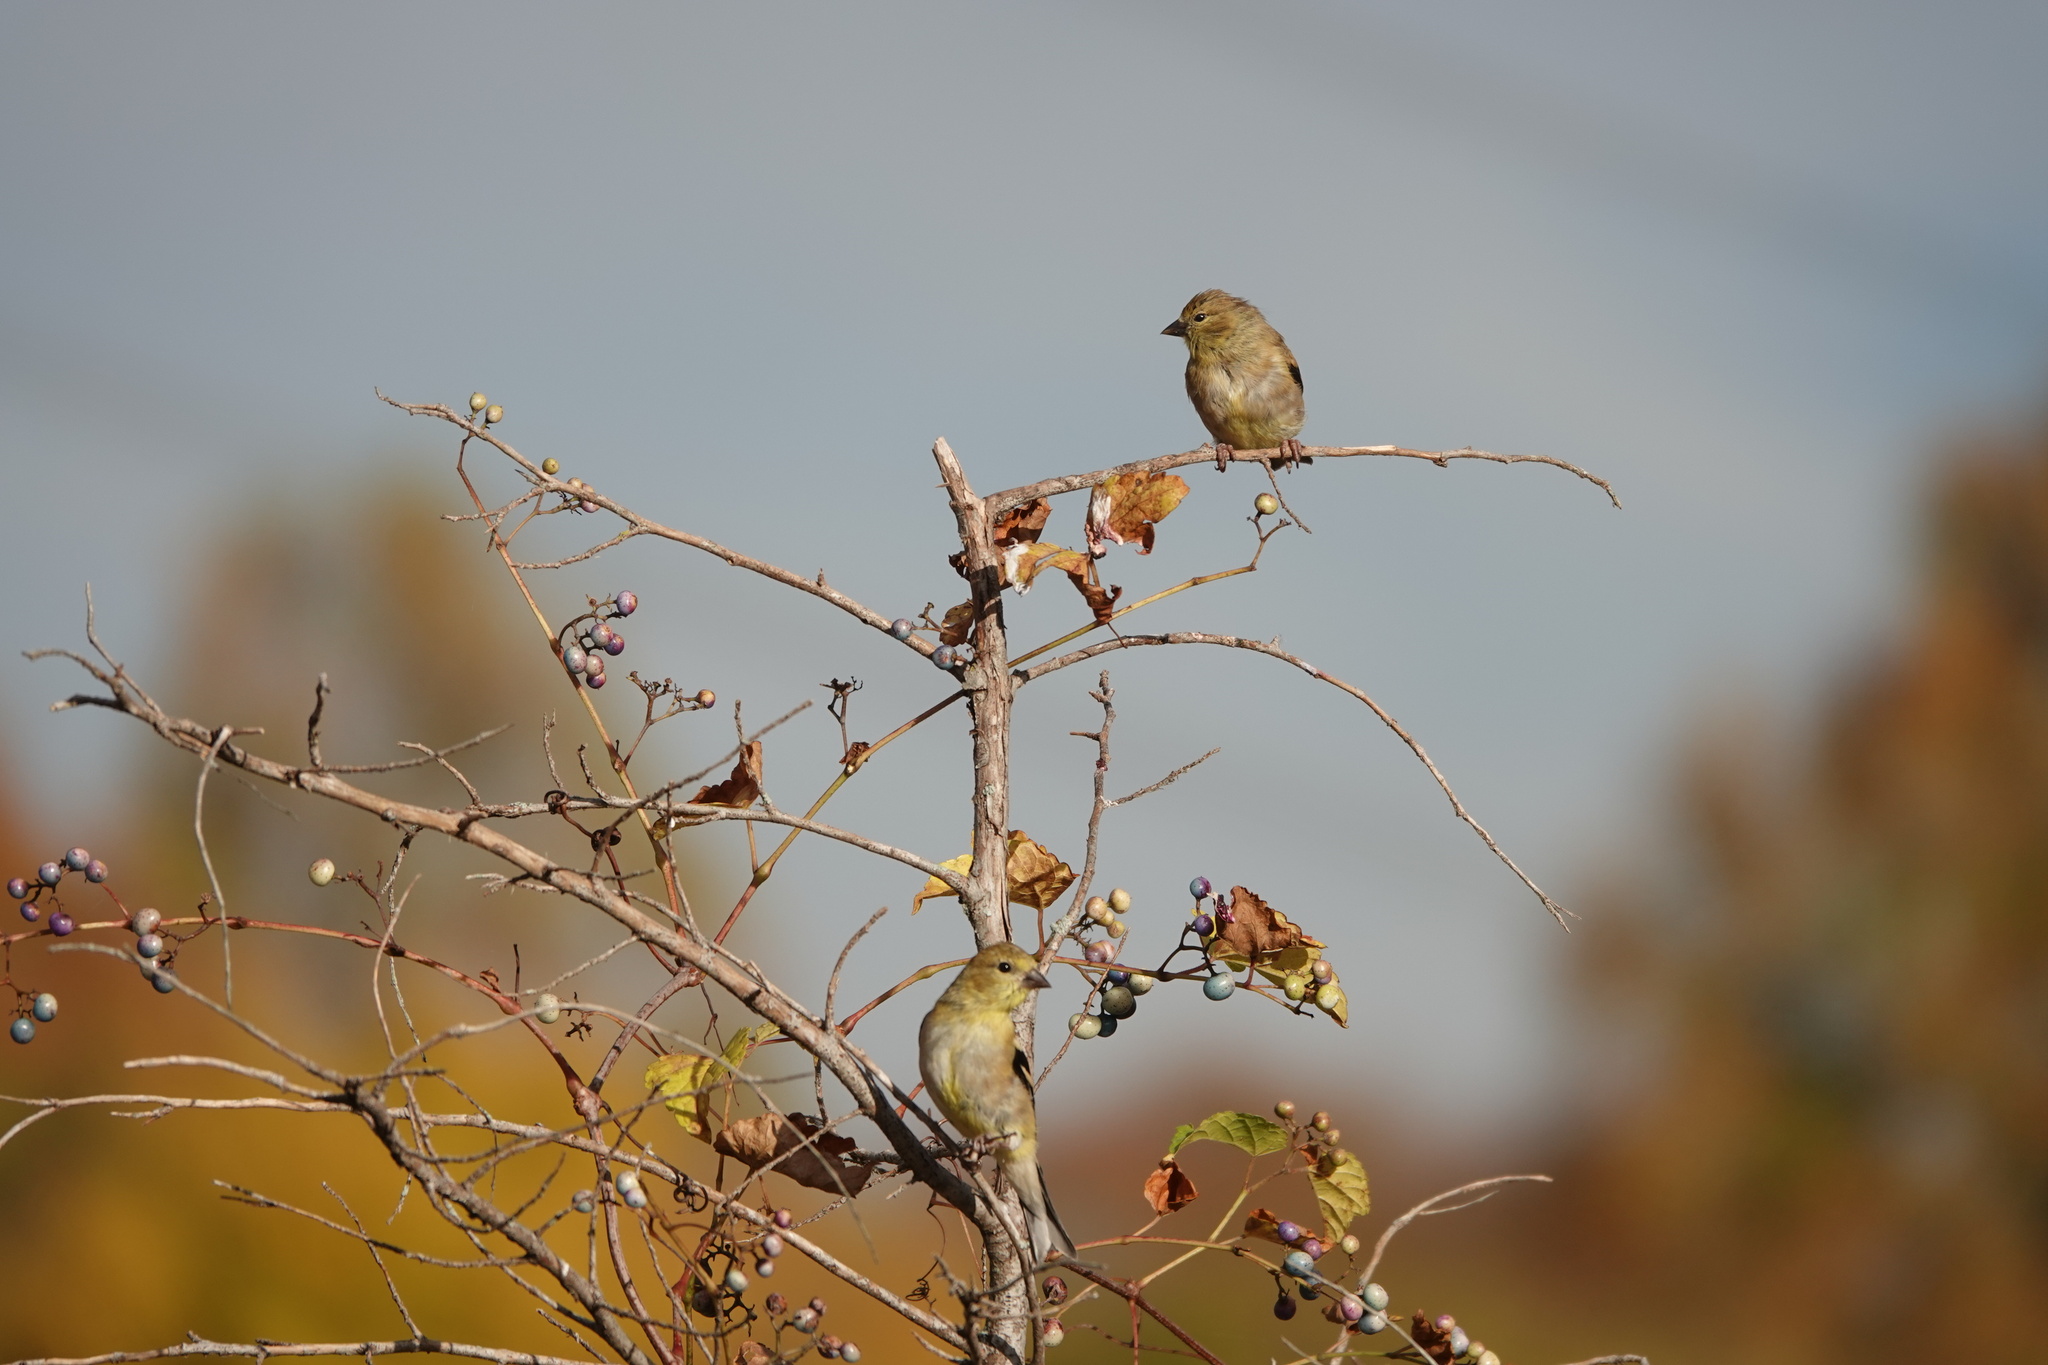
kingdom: Animalia
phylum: Chordata
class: Aves
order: Passeriformes
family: Fringillidae
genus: Spinus
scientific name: Spinus tristis
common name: American goldfinch
